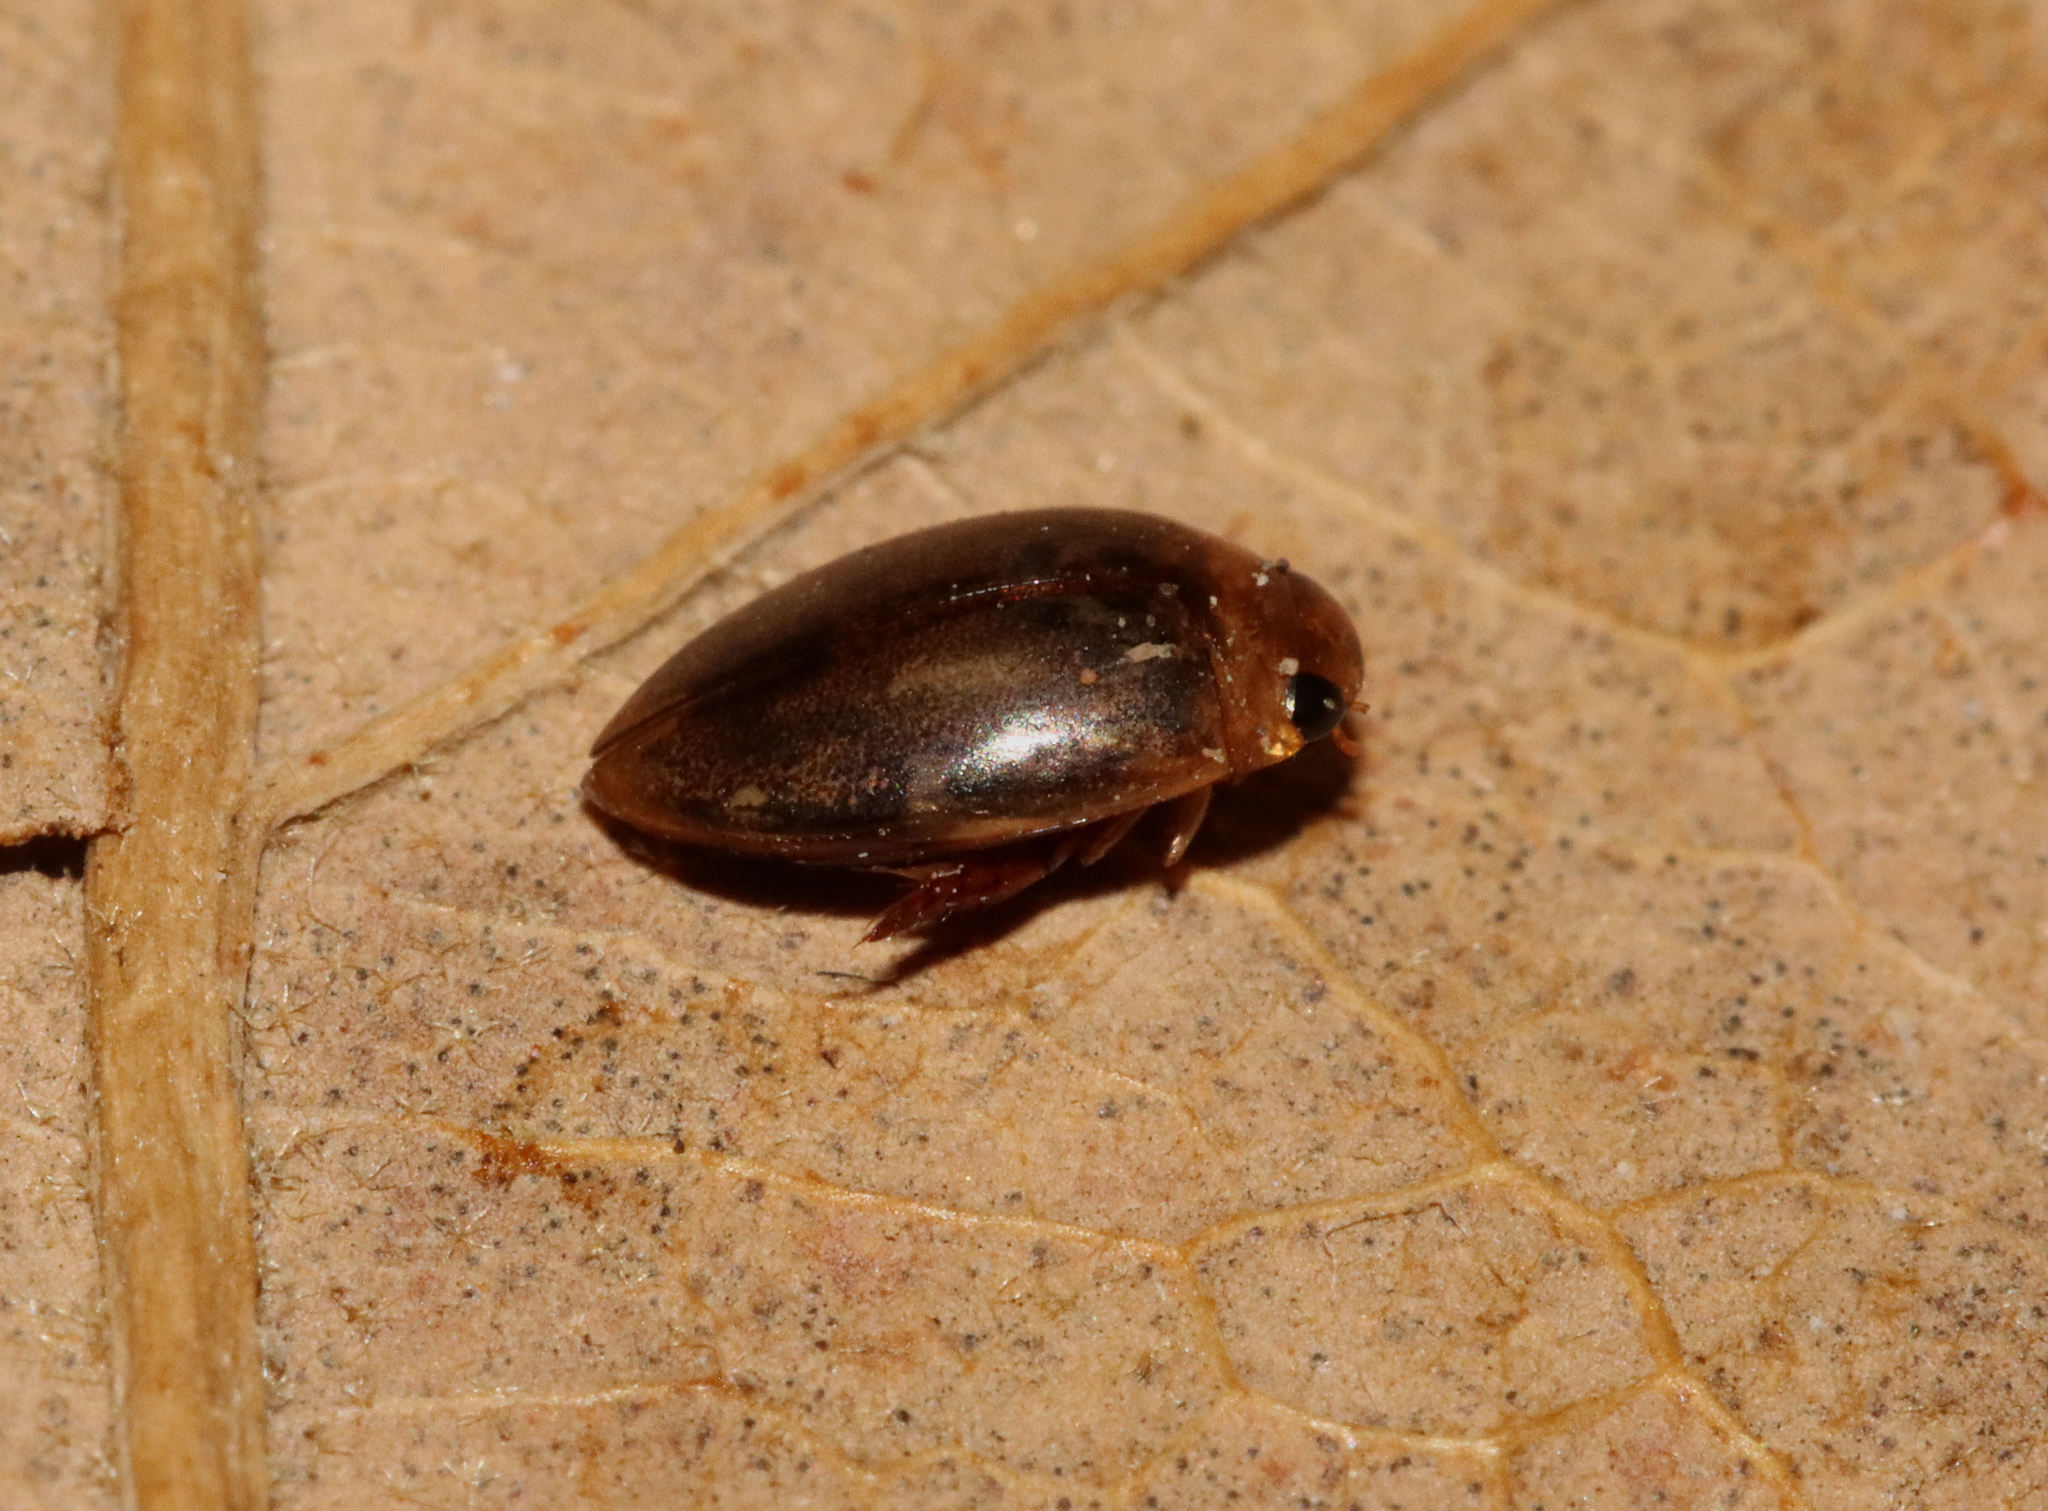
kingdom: Animalia
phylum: Arthropoda
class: Insecta
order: Coleoptera
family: Dytiscidae
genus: Laccophilus
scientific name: Laccophilus proximus
